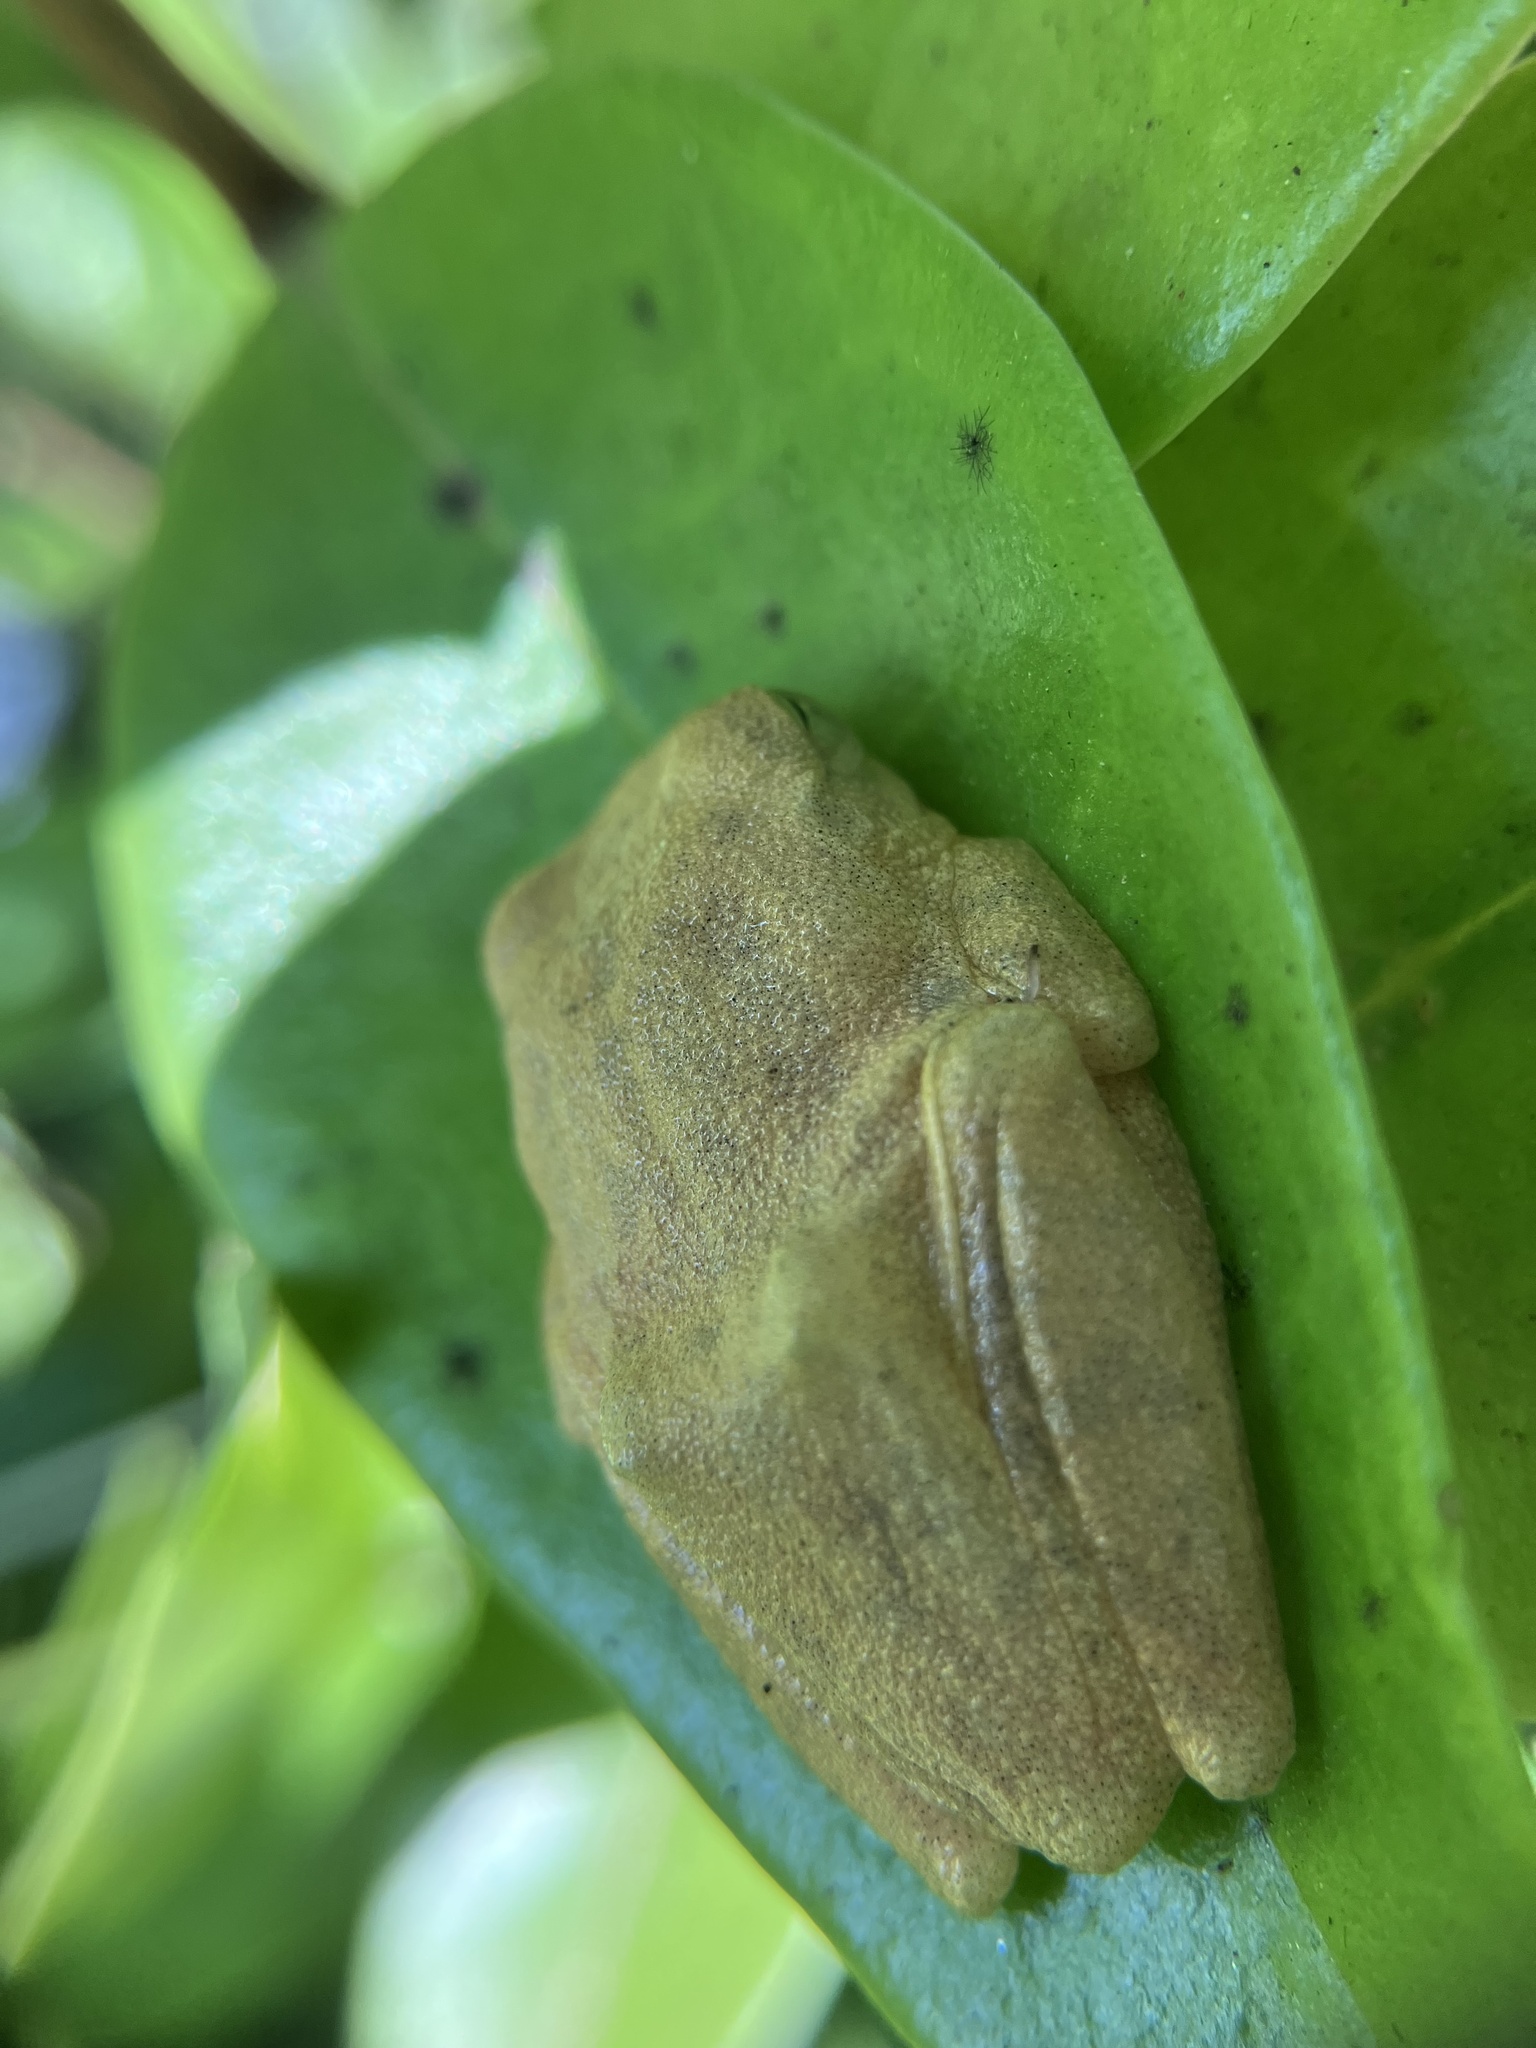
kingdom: Animalia
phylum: Chordata
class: Amphibia
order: Anura
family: Rhacophoridae
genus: Raorchestes
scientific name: Raorchestes luteolus
